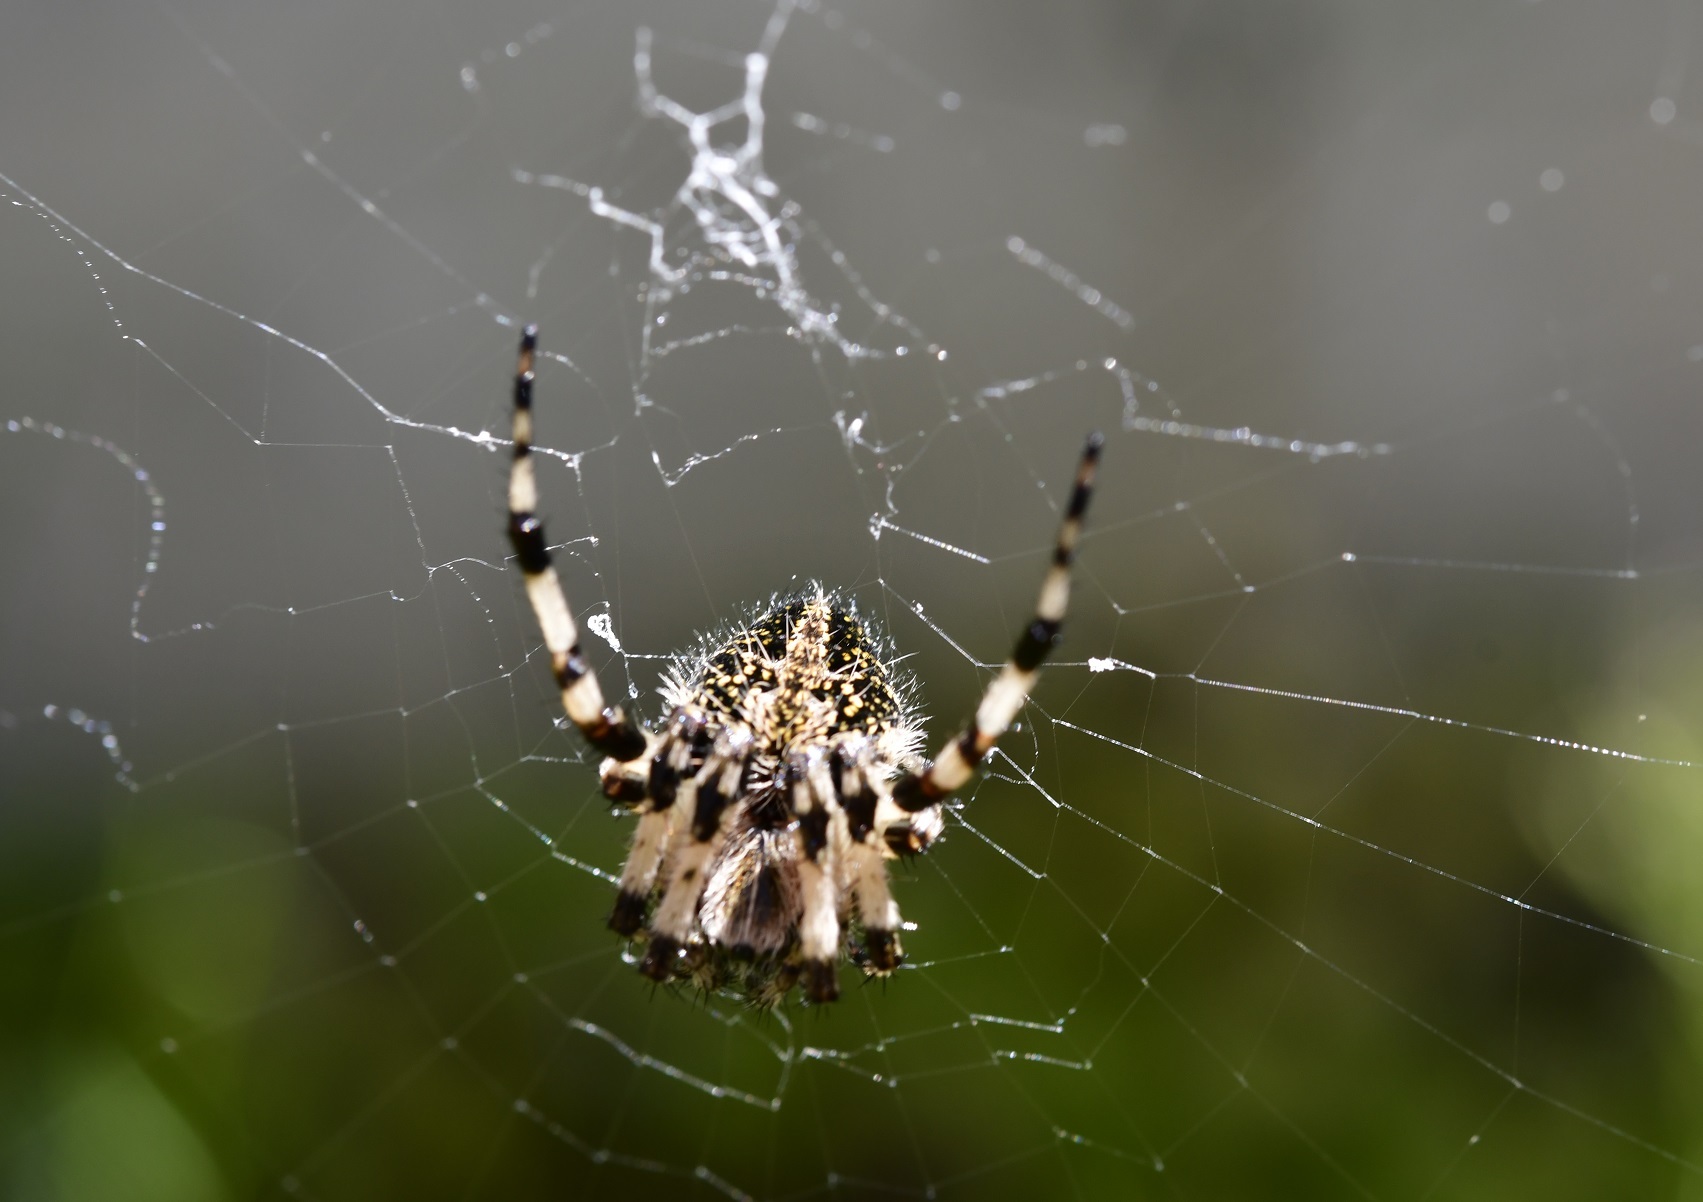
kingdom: Animalia
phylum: Arthropoda
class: Arachnida
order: Araneae
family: Araneidae
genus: Neoscona
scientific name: Neoscona orizabensis
